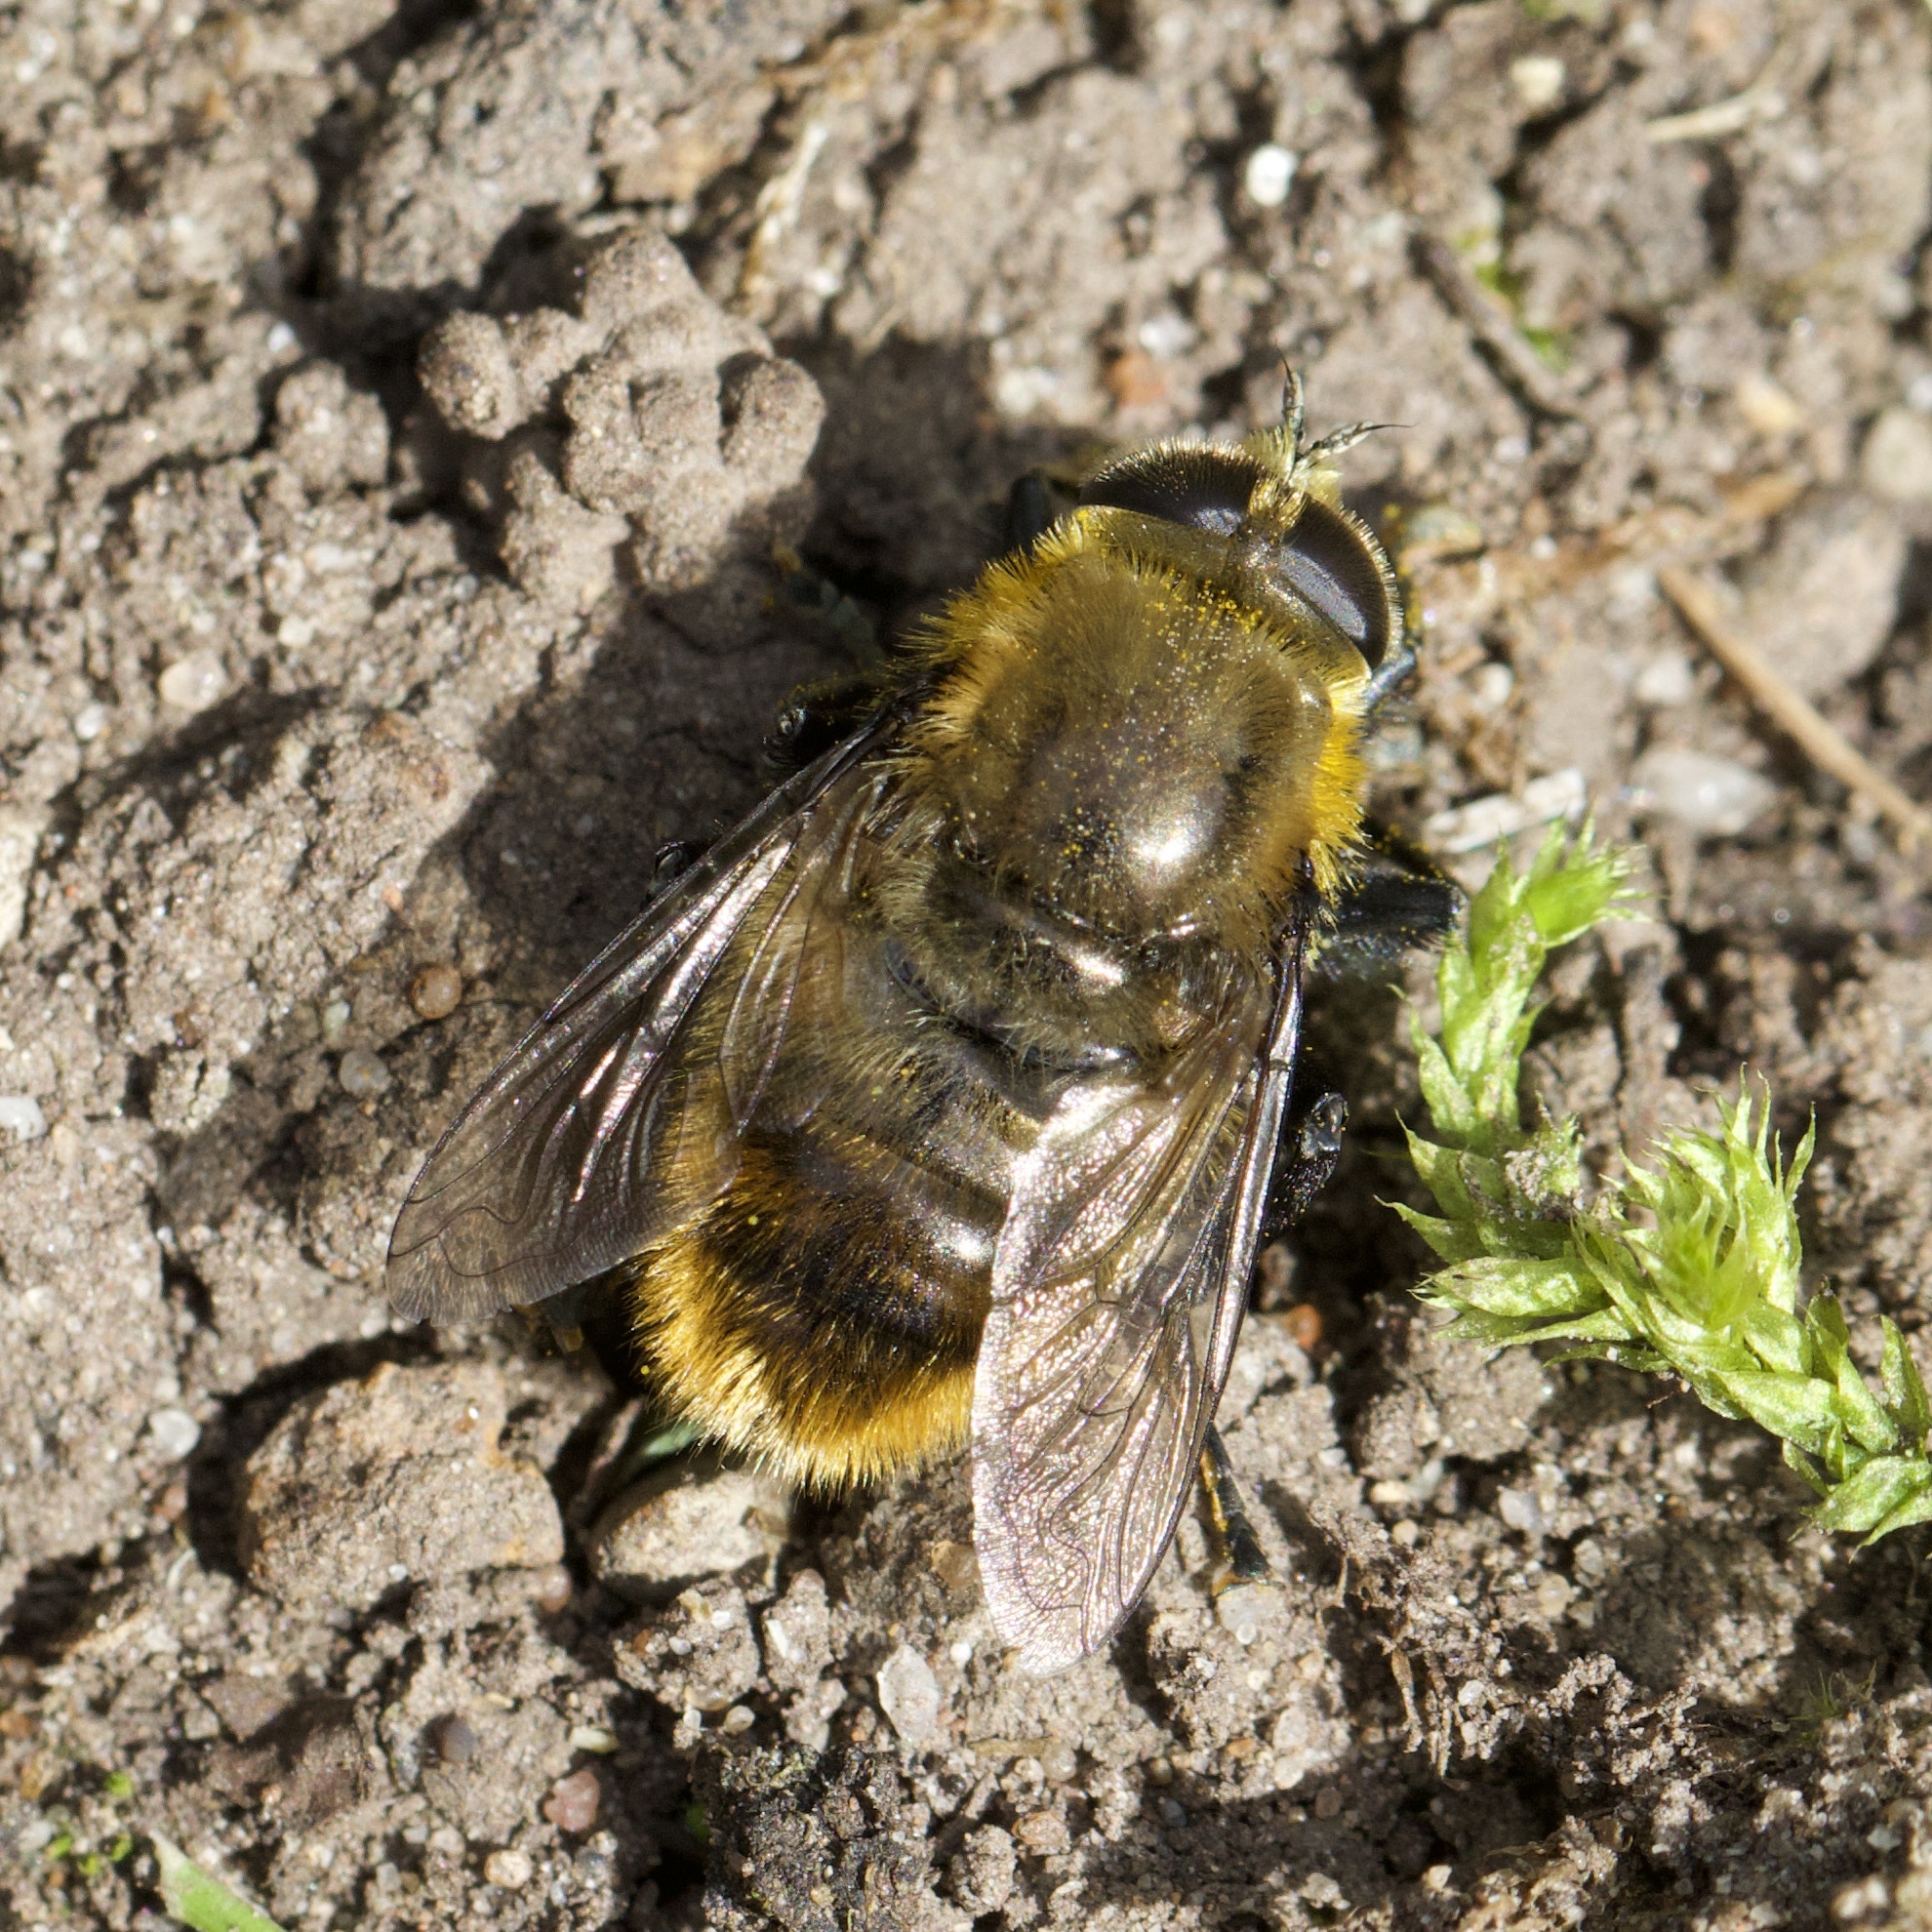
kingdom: Animalia
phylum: Arthropoda
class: Insecta
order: Diptera
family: Syrphidae
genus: Merodon
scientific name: Merodon equestris
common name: Greater bulb-fly
